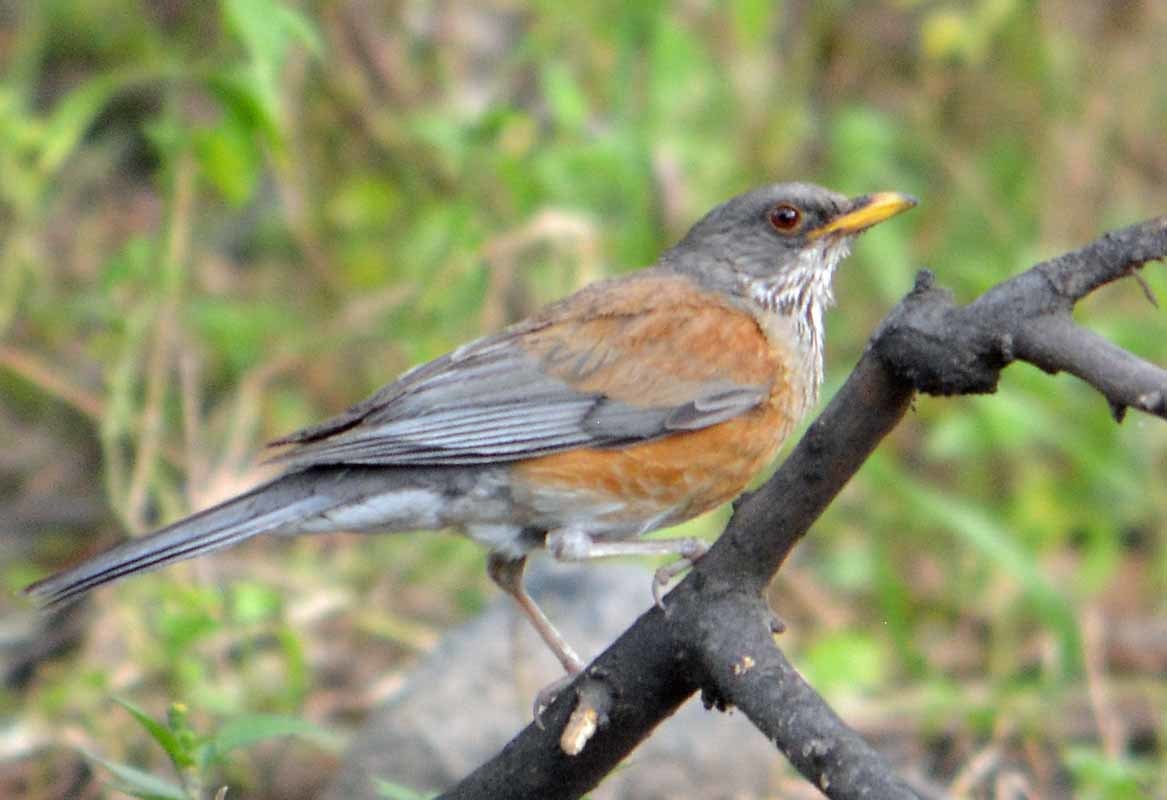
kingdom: Animalia
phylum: Chordata
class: Aves
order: Passeriformes
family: Turdidae
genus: Turdus
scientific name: Turdus rufopalliatus
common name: Rufous-backed robin
